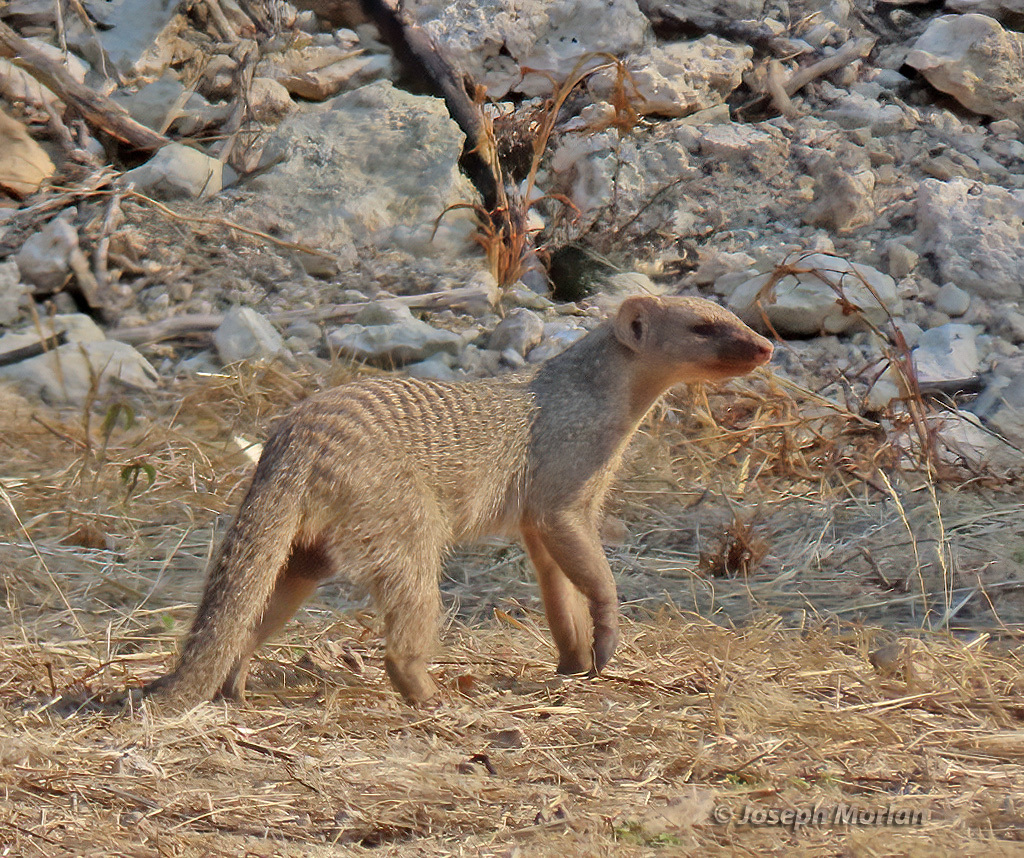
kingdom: Animalia
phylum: Chordata
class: Mammalia
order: Carnivora
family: Herpestidae
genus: Mungos
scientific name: Mungos mungo
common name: Banded mongoose
